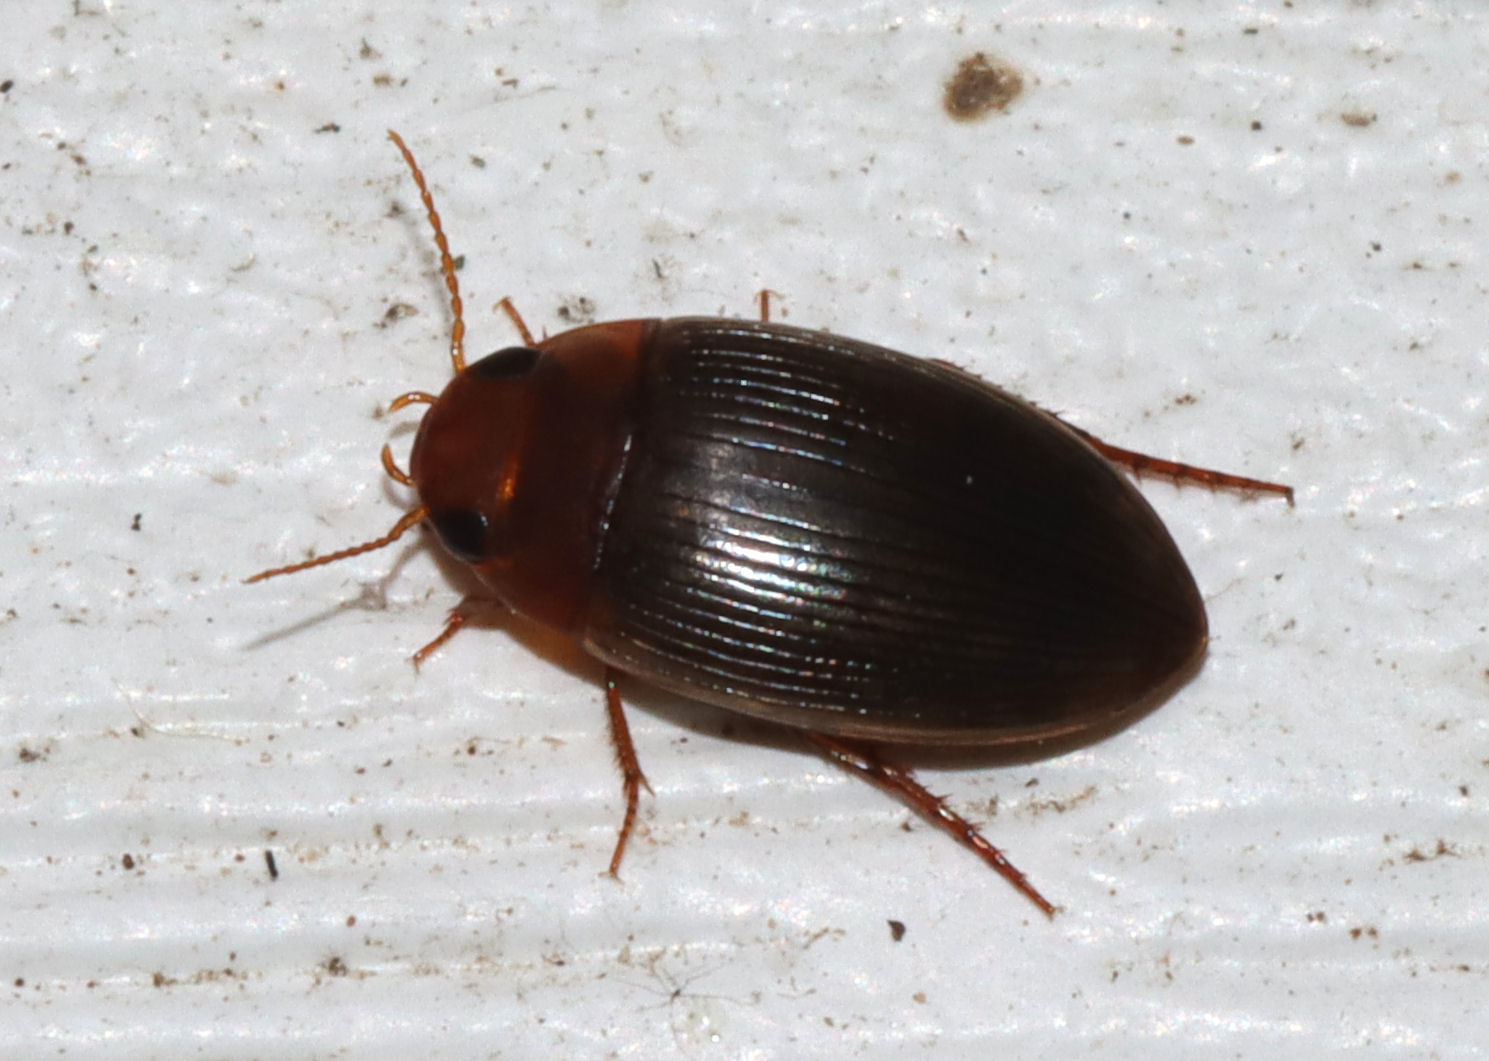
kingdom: Animalia
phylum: Arthropoda
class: Insecta
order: Coleoptera
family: Dytiscidae
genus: Copelatus
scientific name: Copelatus glyphicus
